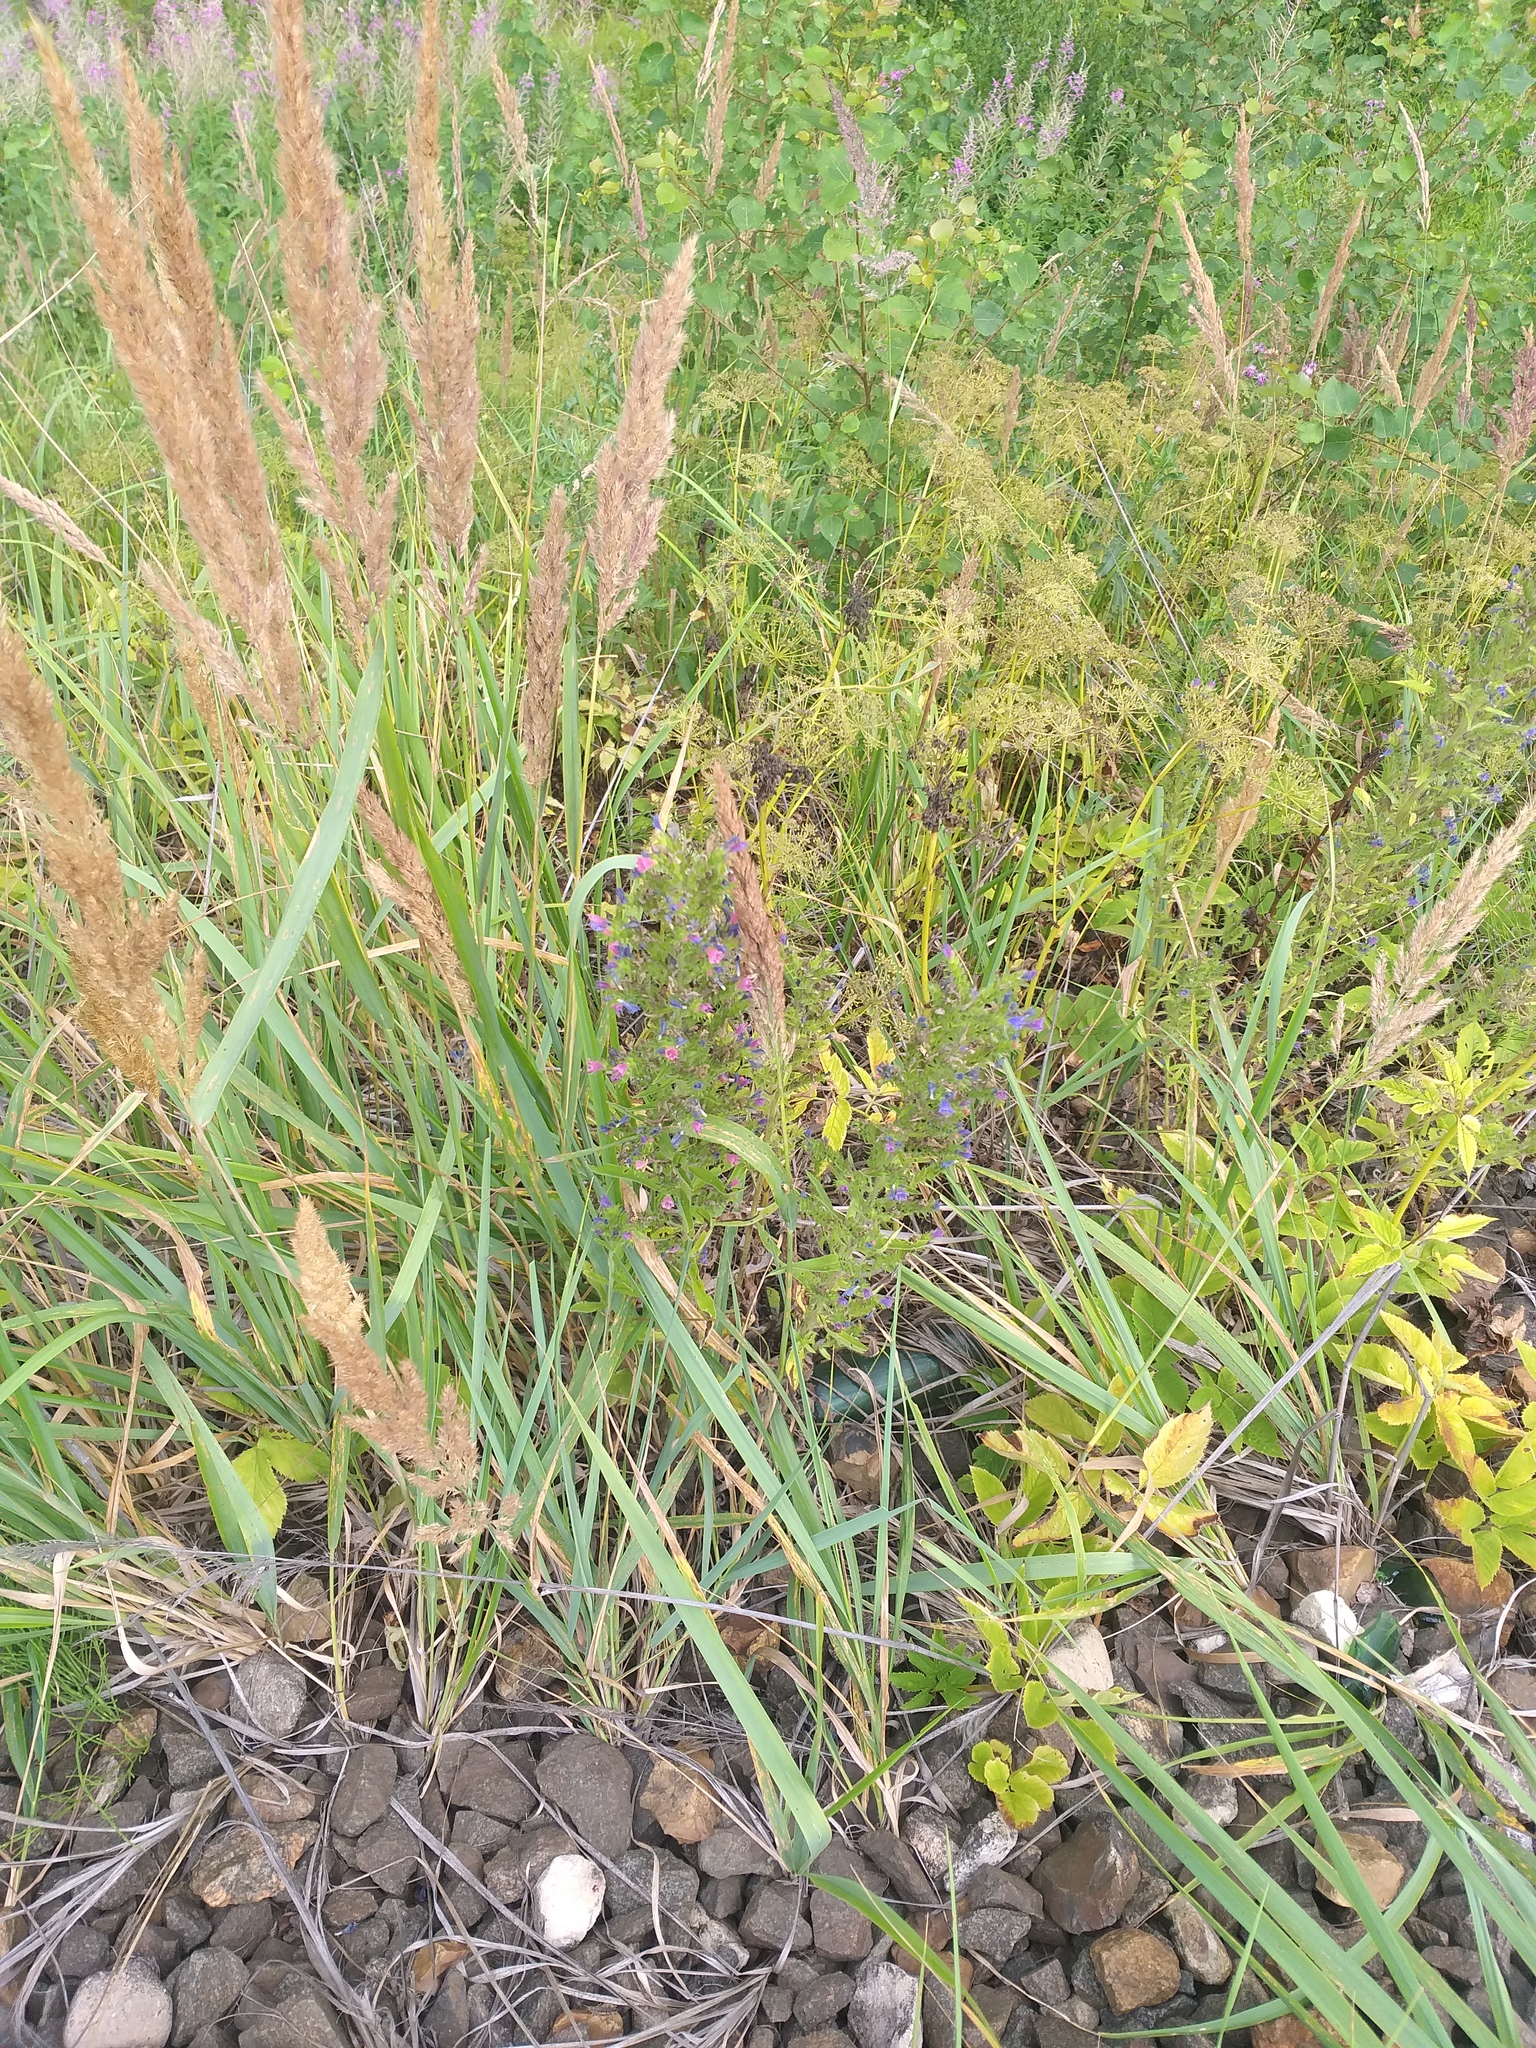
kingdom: Plantae
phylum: Tracheophyta
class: Magnoliopsida
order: Boraginales
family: Boraginaceae
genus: Echium
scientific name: Echium vulgare
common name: Common viper's bugloss
